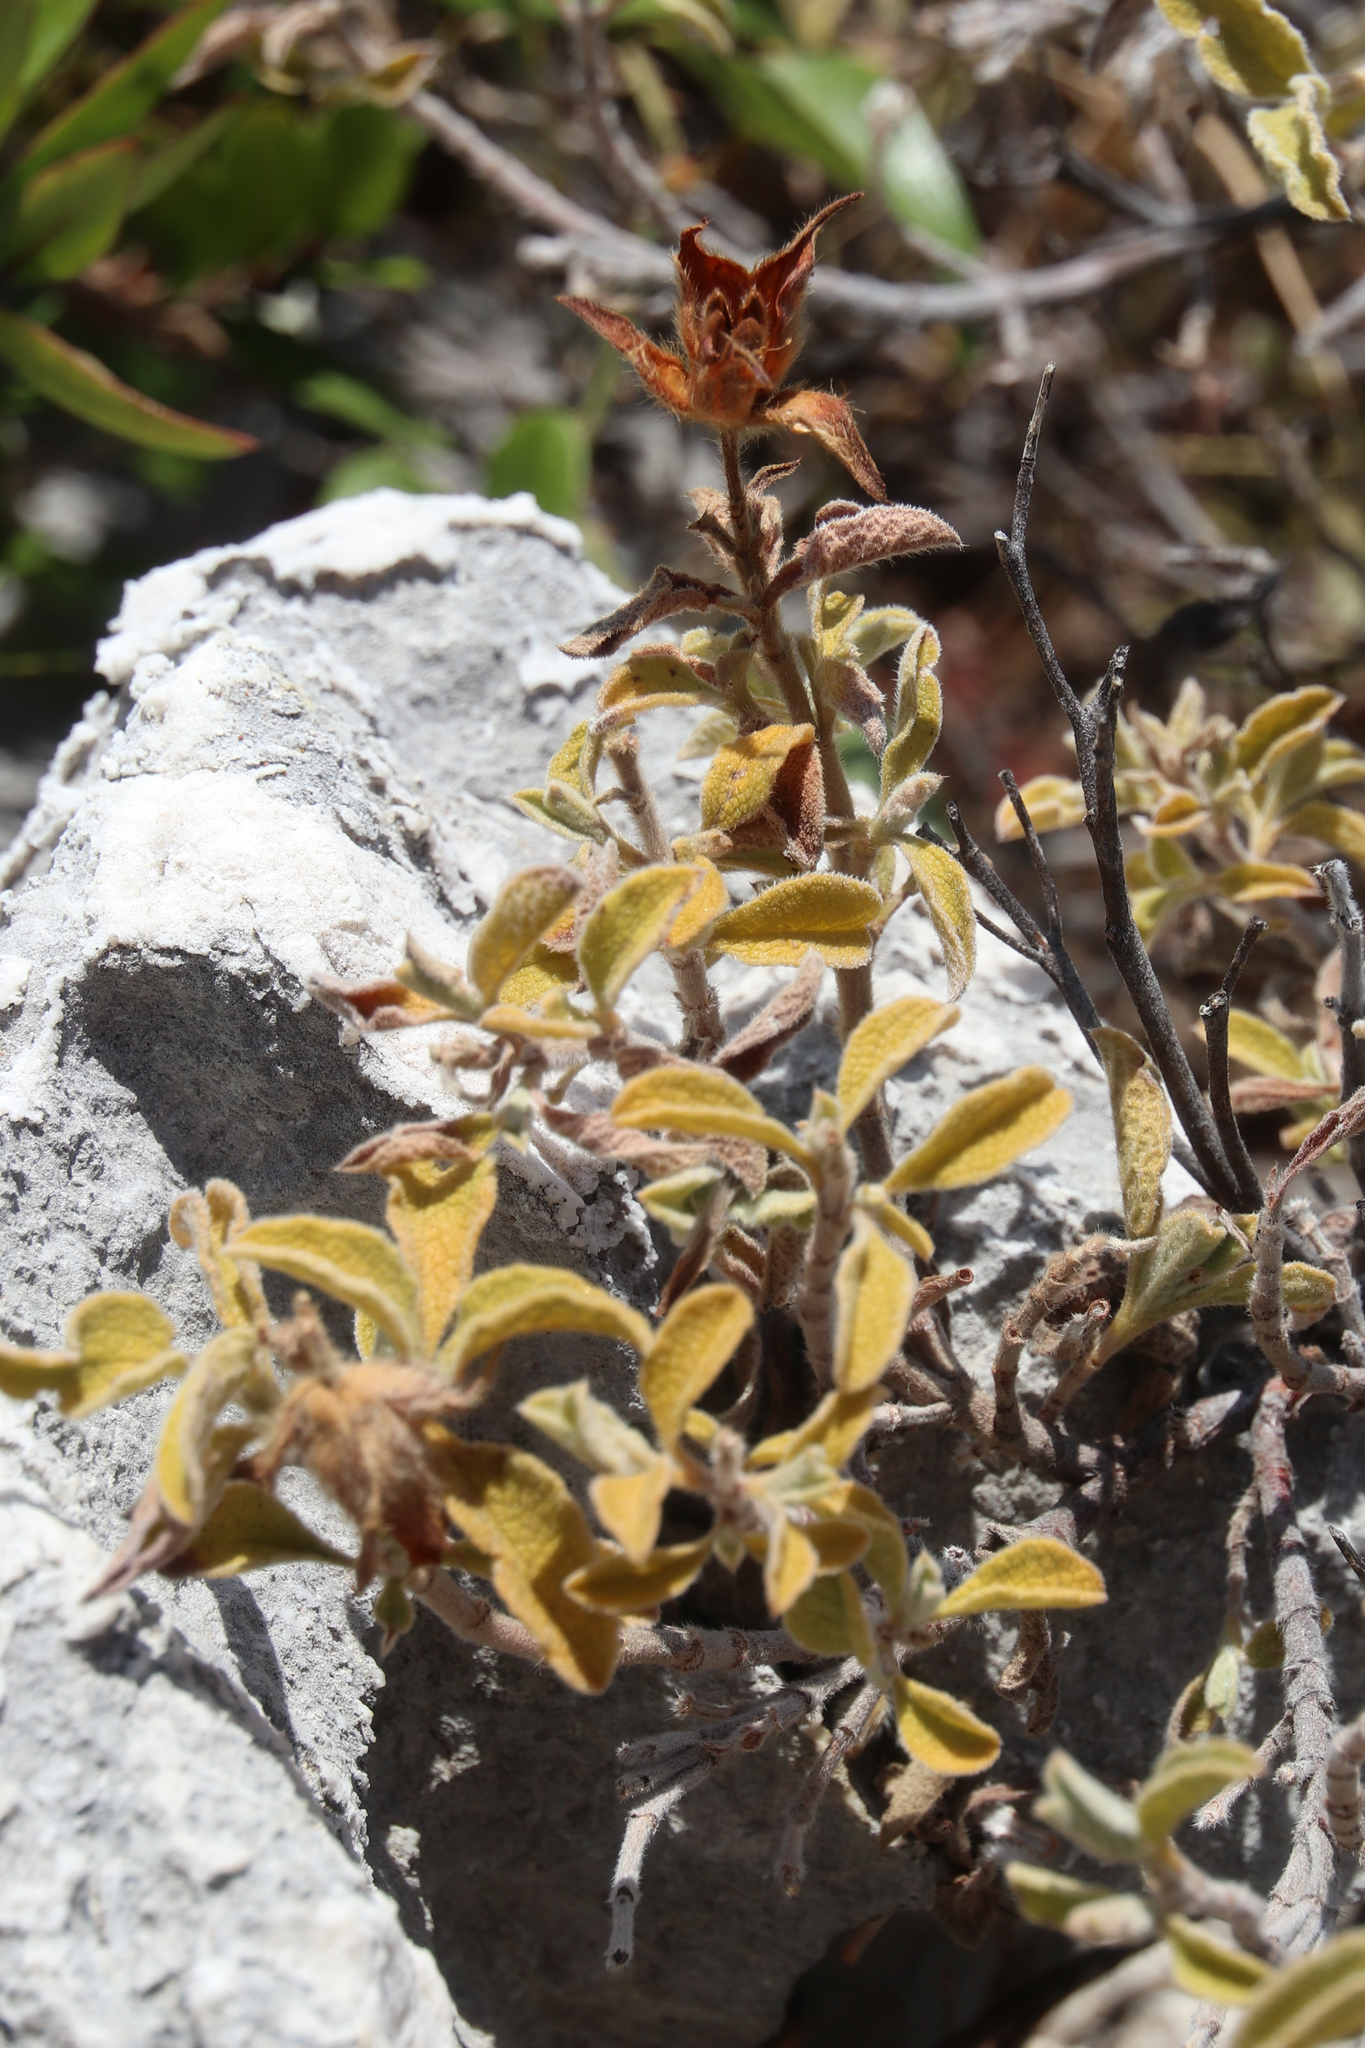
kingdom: Plantae
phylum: Tracheophyta
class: Magnoliopsida
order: Malvales
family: Cistaceae
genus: Cistus
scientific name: Cistus creticus
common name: Cretan rockrose
